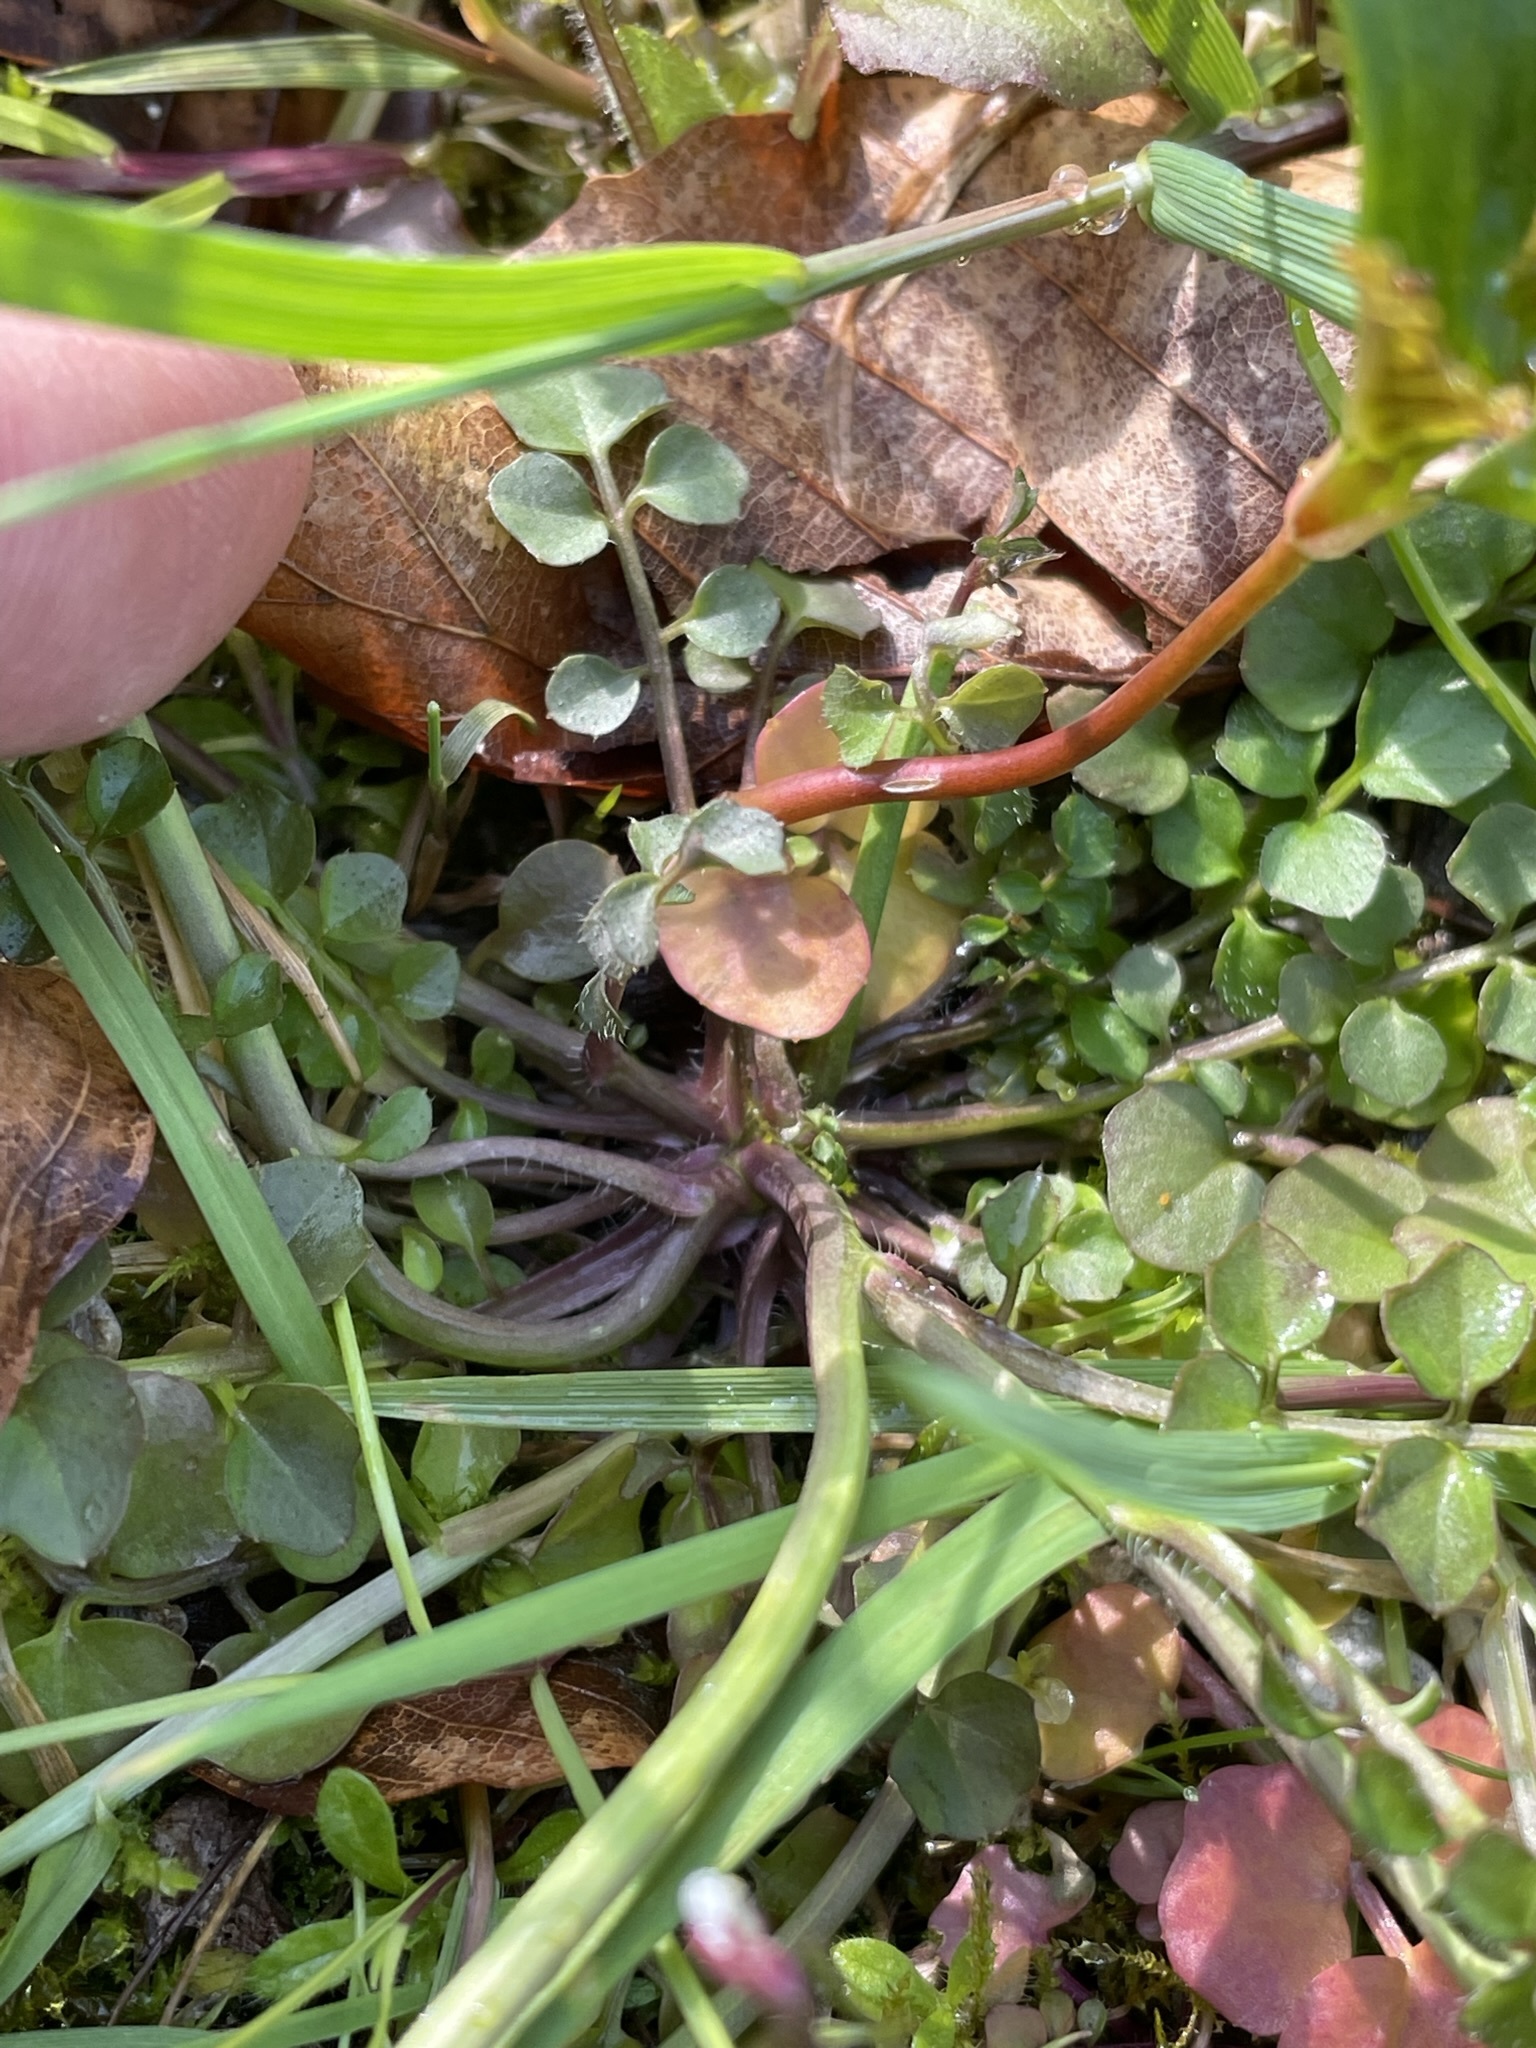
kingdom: Plantae
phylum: Tracheophyta
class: Magnoliopsida
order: Brassicales
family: Brassicaceae
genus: Cardamine
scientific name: Cardamine hirsuta
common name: Hairy bittercress
